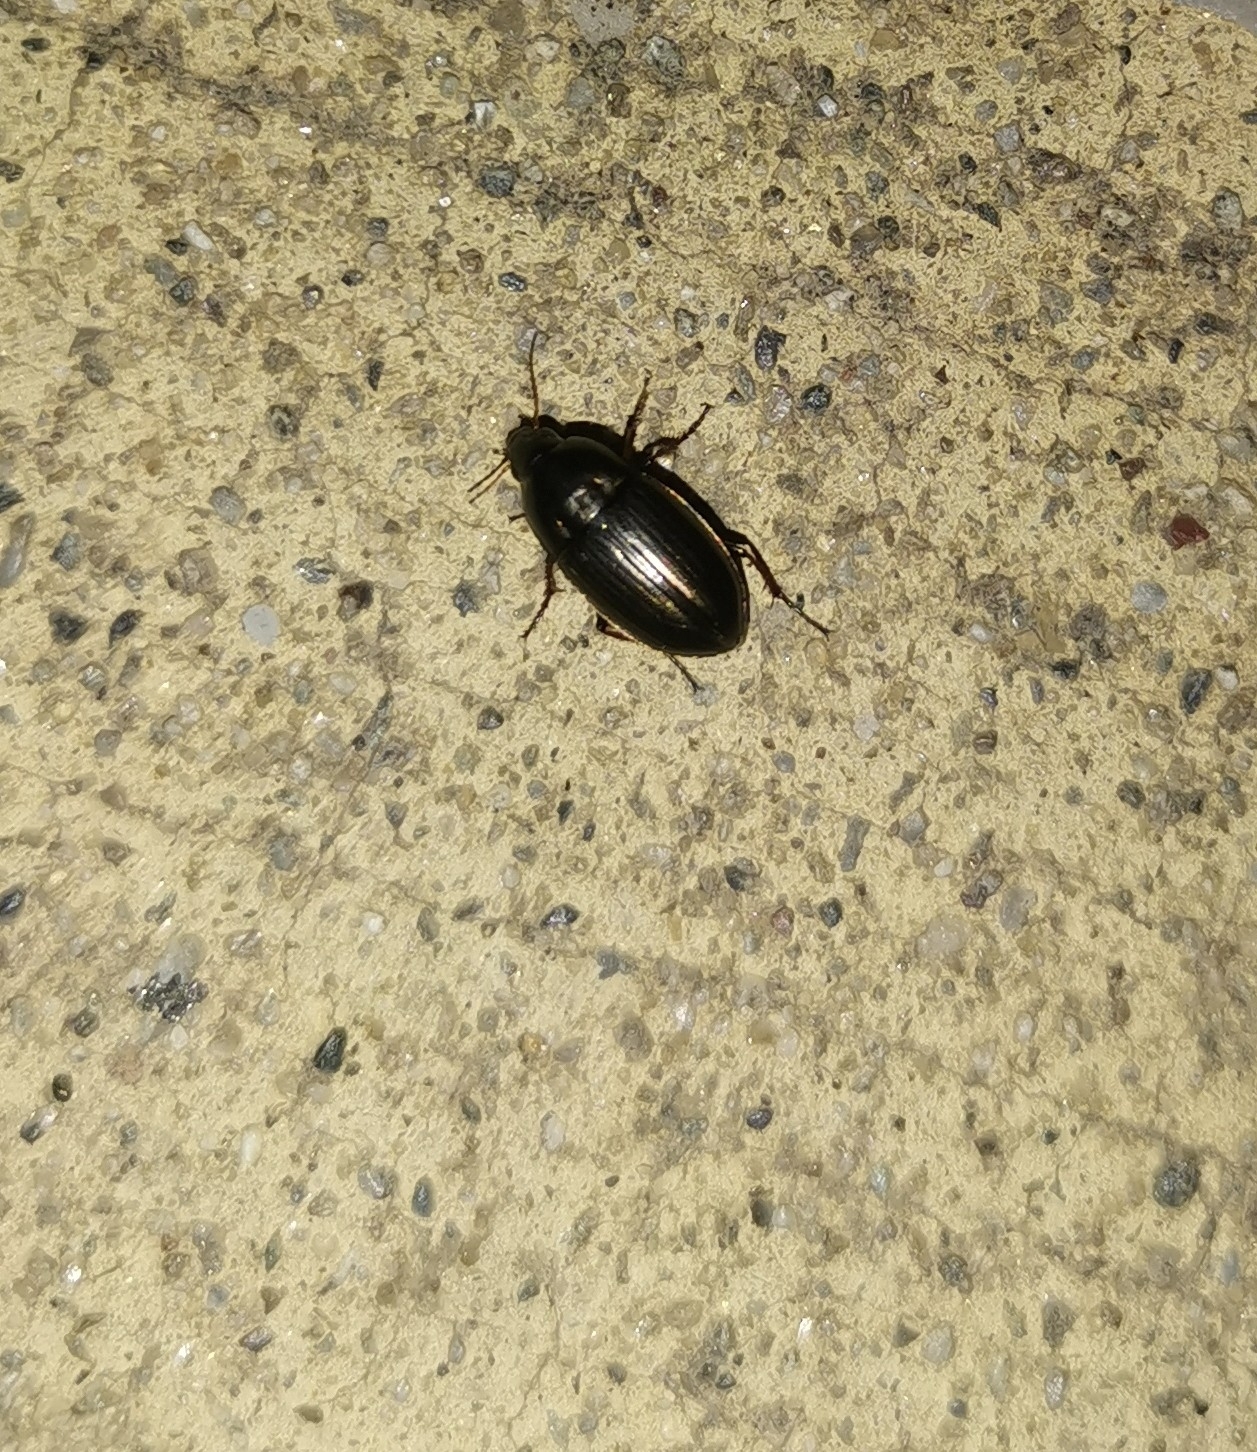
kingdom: Animalia
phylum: Arthropoda
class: Insecta
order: Coleoptera
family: Carabidae
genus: Amara
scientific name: Amara lucida
